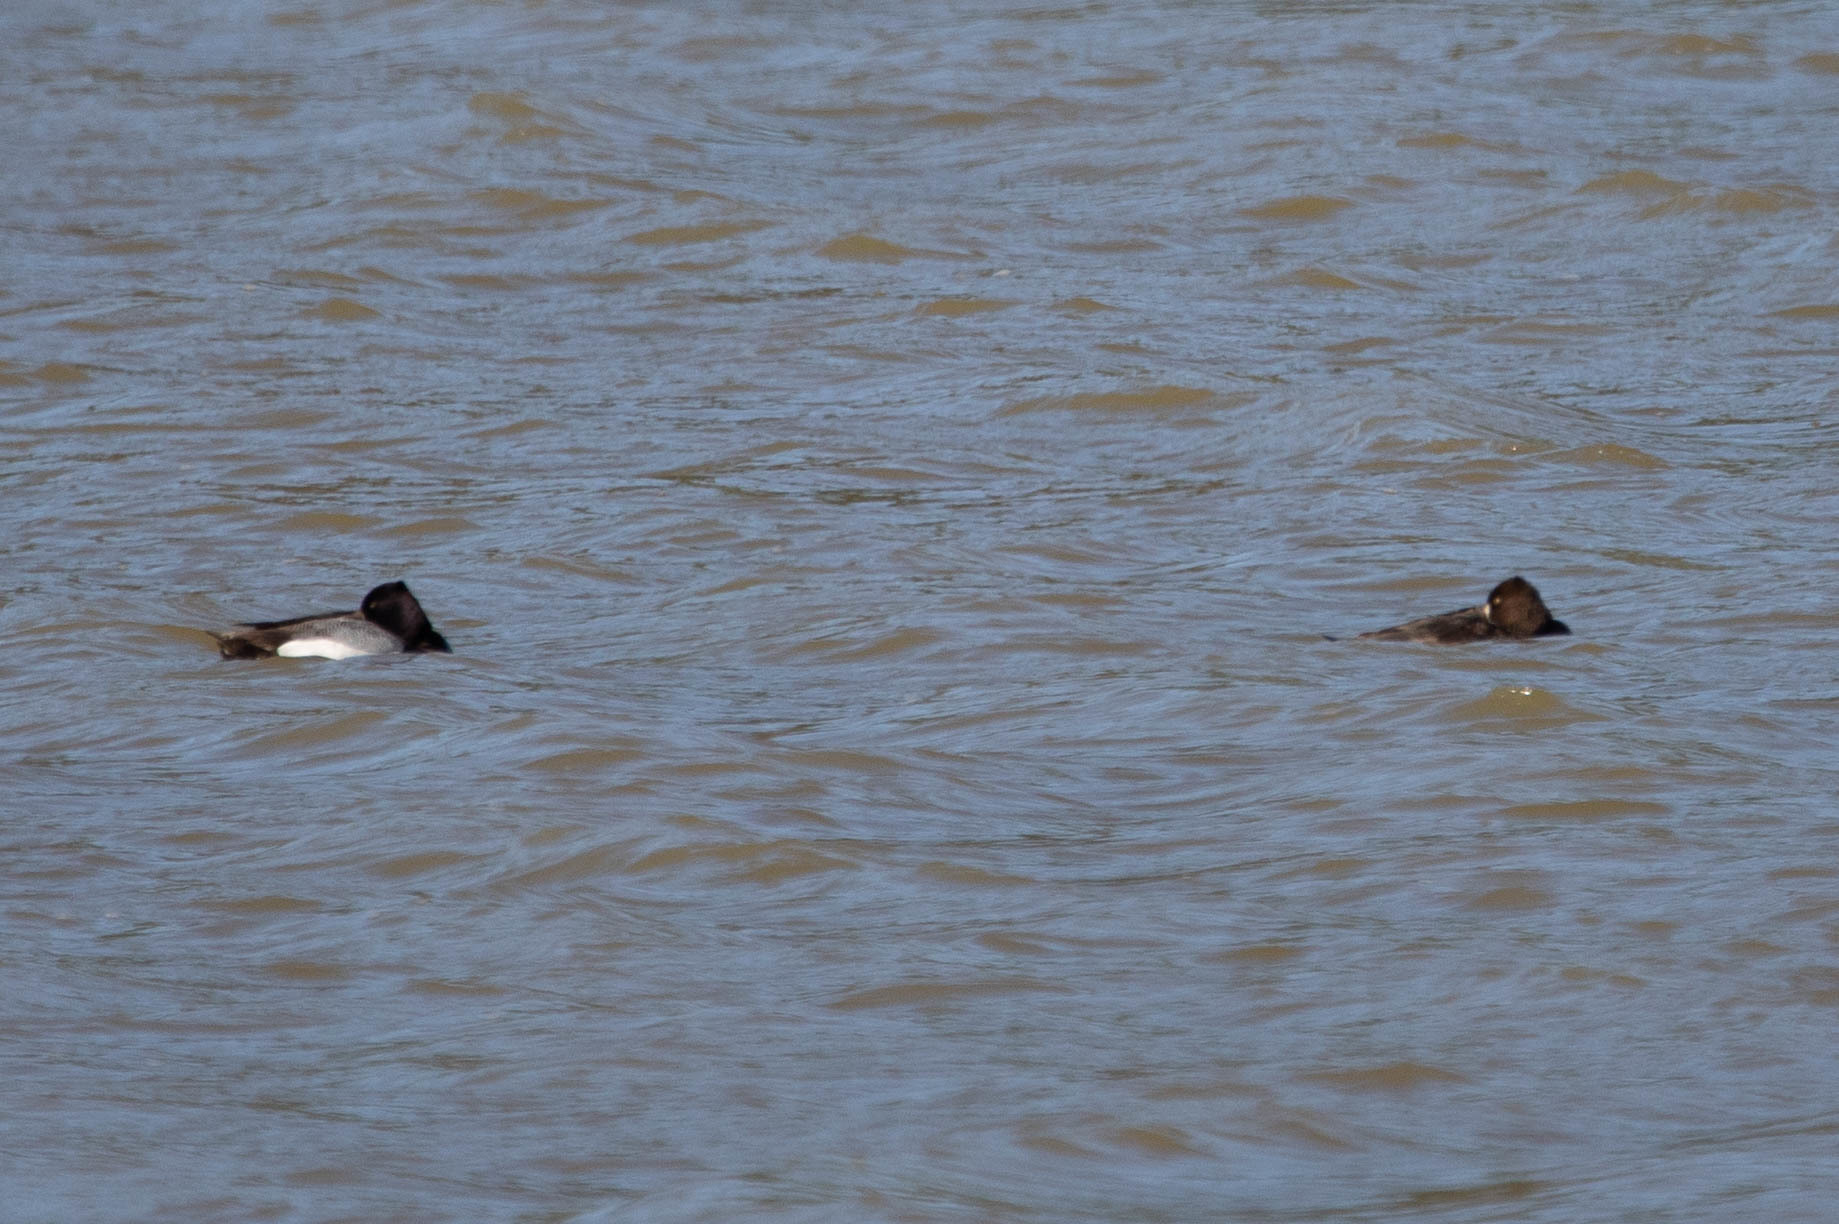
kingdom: Animalia
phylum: Chordata
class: Aves
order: Anseriformes
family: Anatidae
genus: Aythya
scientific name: Aythya affinis
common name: Lesser scaup
